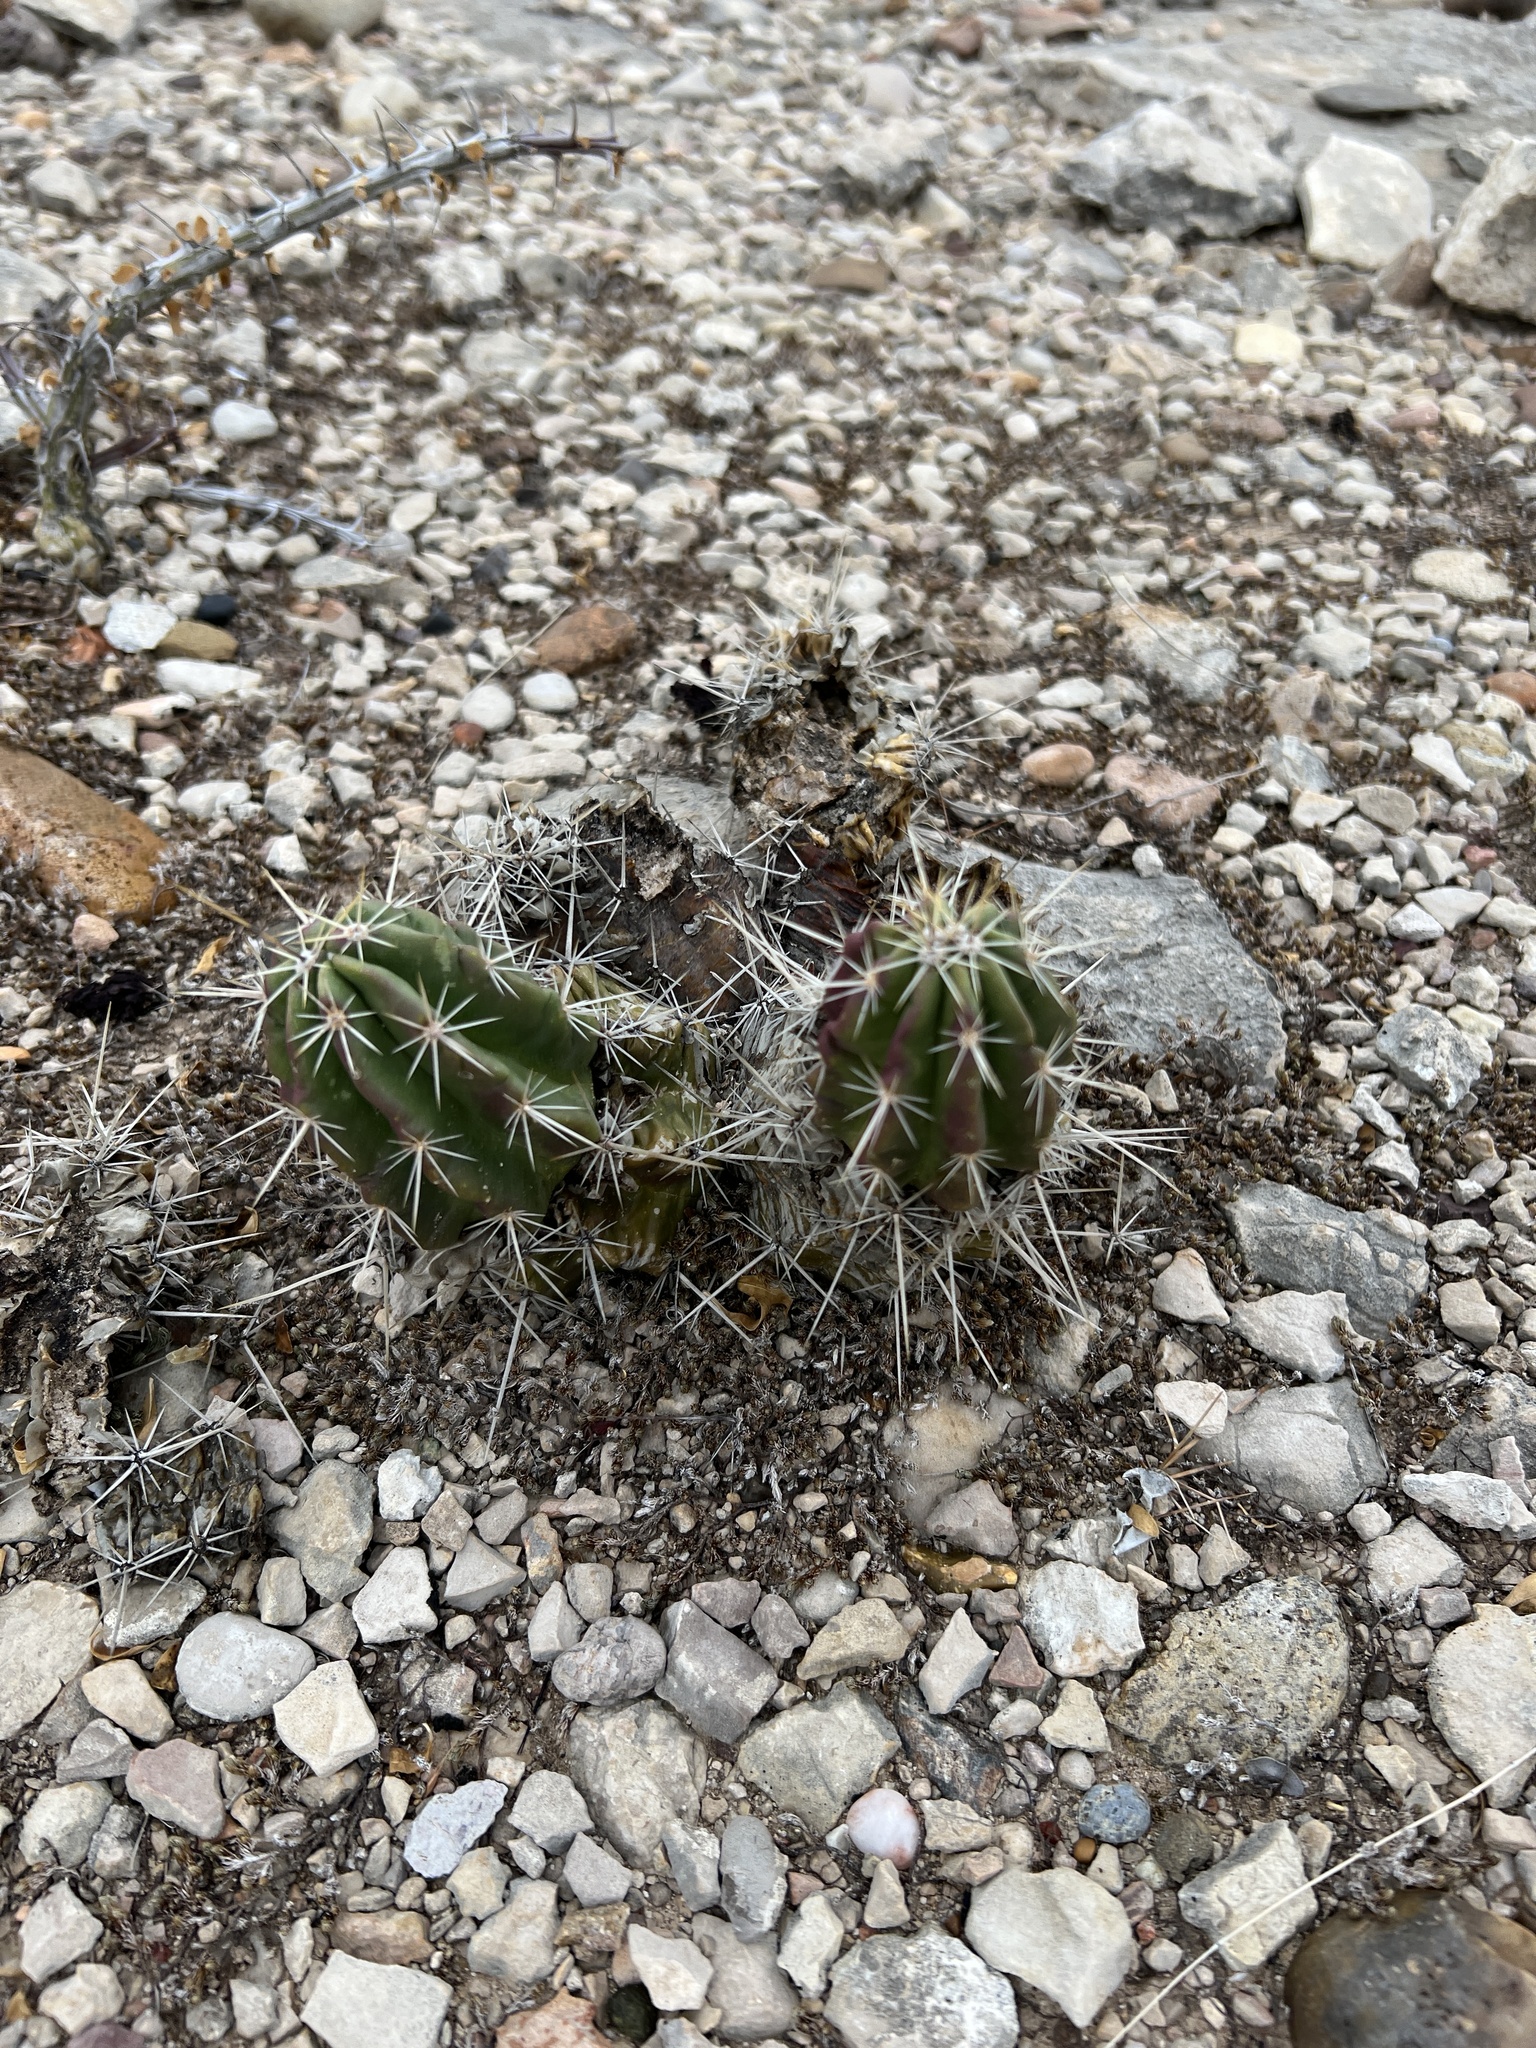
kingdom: Plantae
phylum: Tracheophyta
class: Magnoliopsida
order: Caryophyllales
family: Cactaceae
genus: Echinocereus
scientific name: Echinocereus enneacanthus
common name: Pitaya
